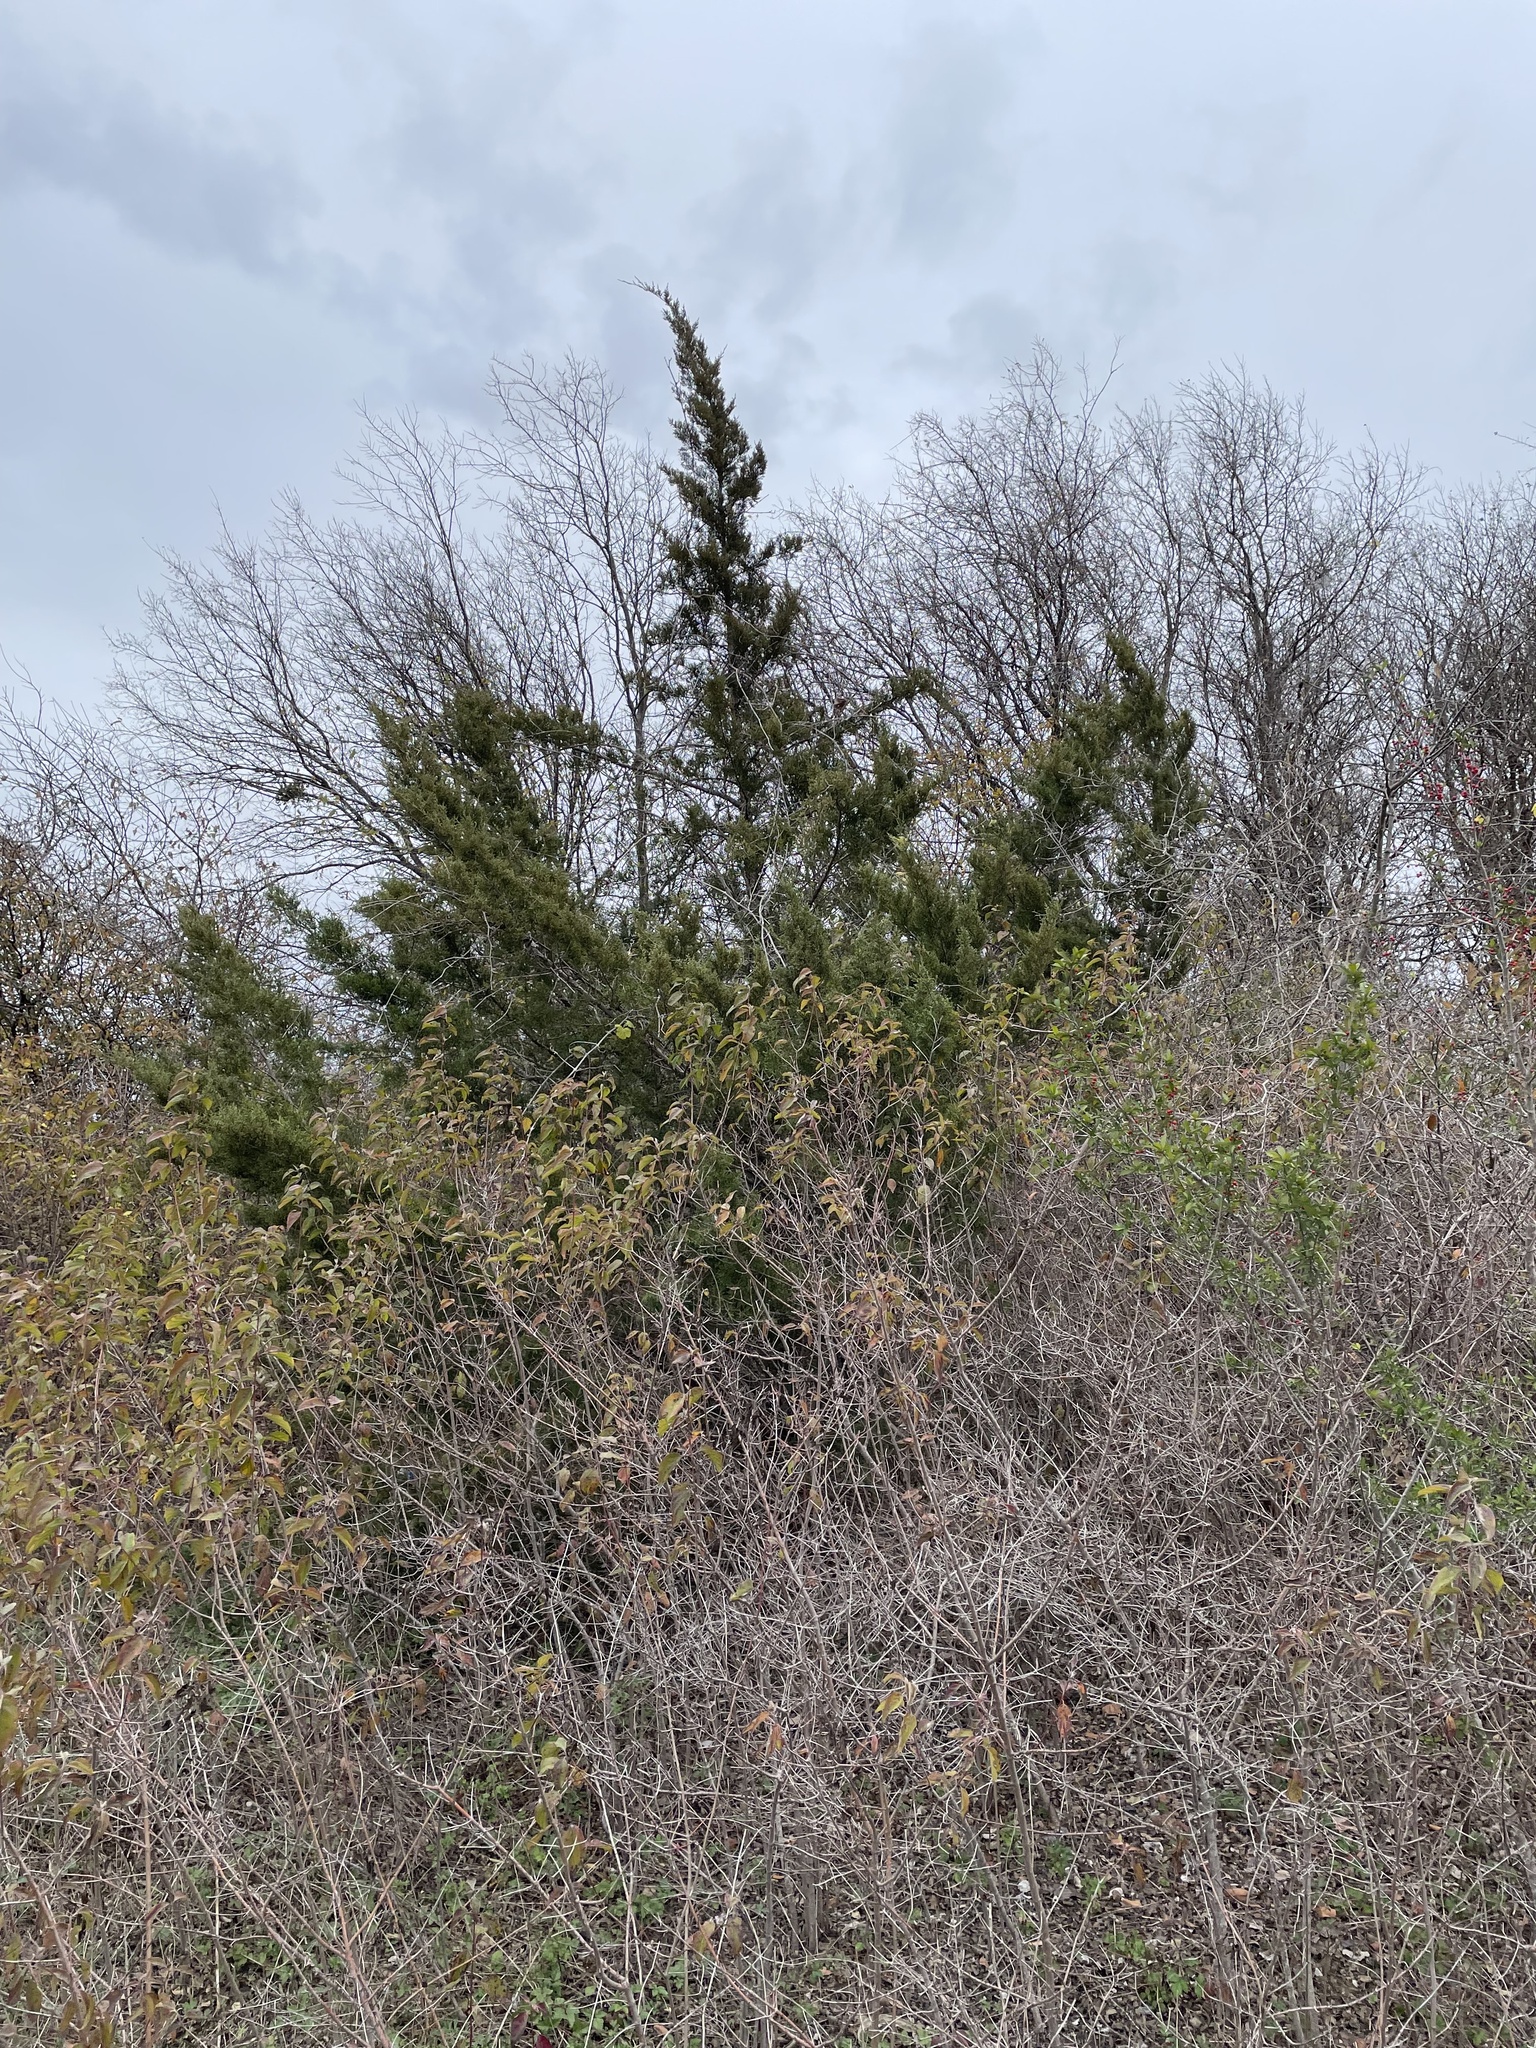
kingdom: Plantae
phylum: Tracheophyta
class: Pinopsida
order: Pinales
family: Cupressaceae
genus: Juniperus
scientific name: Juniperus virginiana
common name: Red juniper
